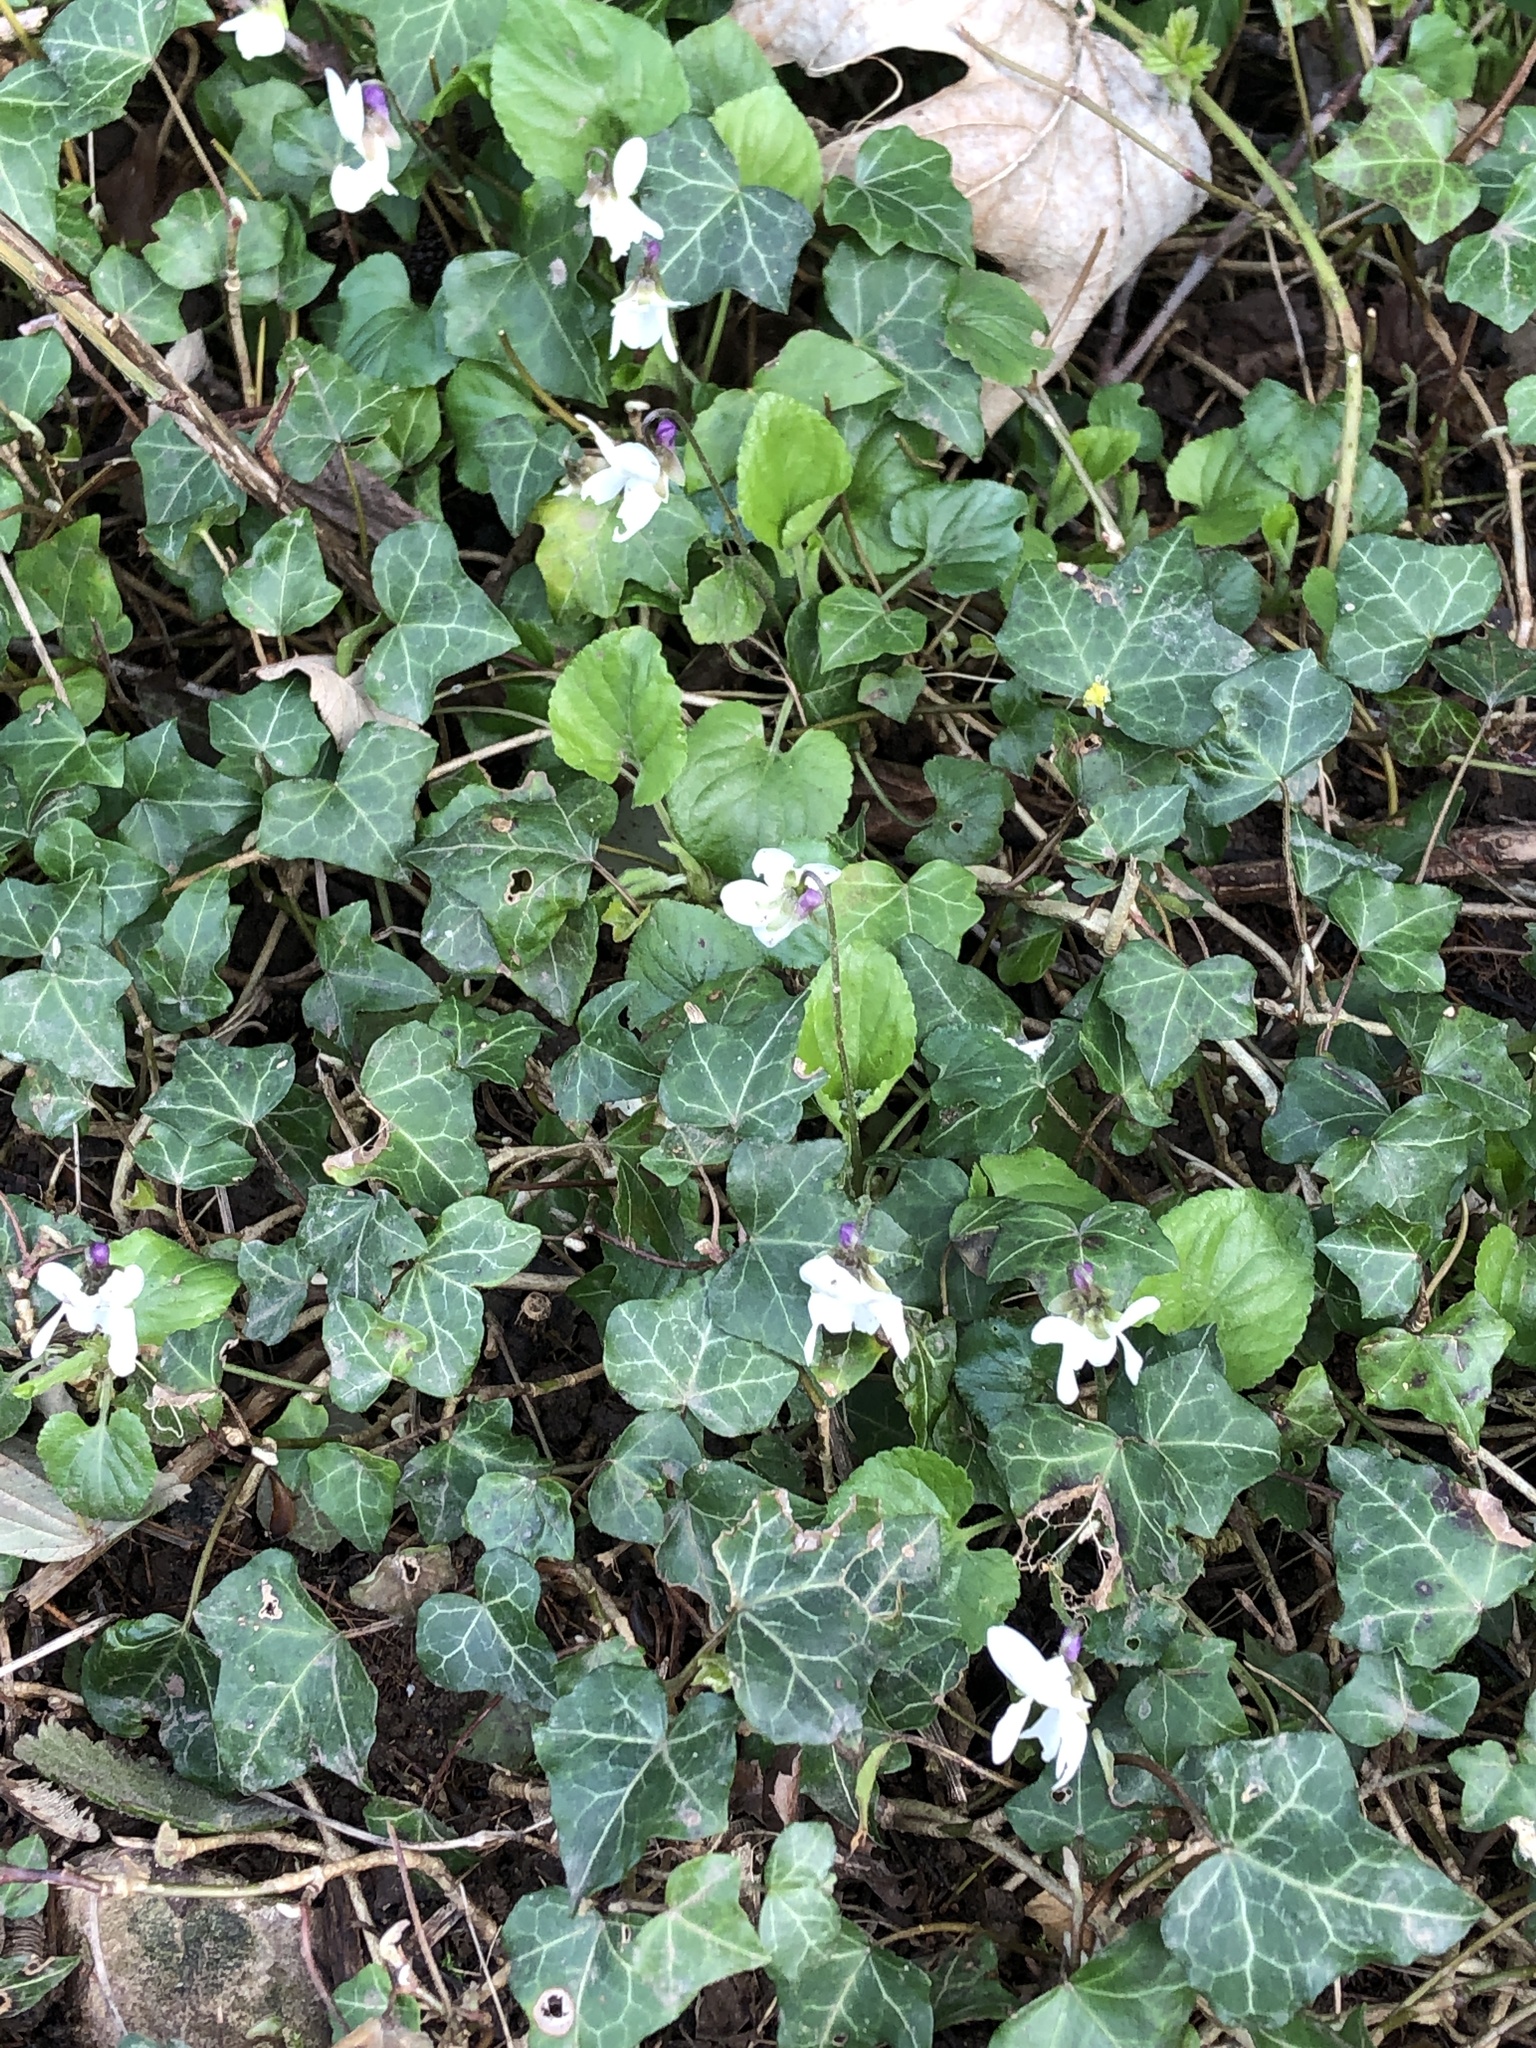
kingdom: Plantae
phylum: Tracheophyta
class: Magnoliopsida
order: Malpighiales
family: Violaceae
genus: Viola
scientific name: Viola odorata
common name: Sweet violet
